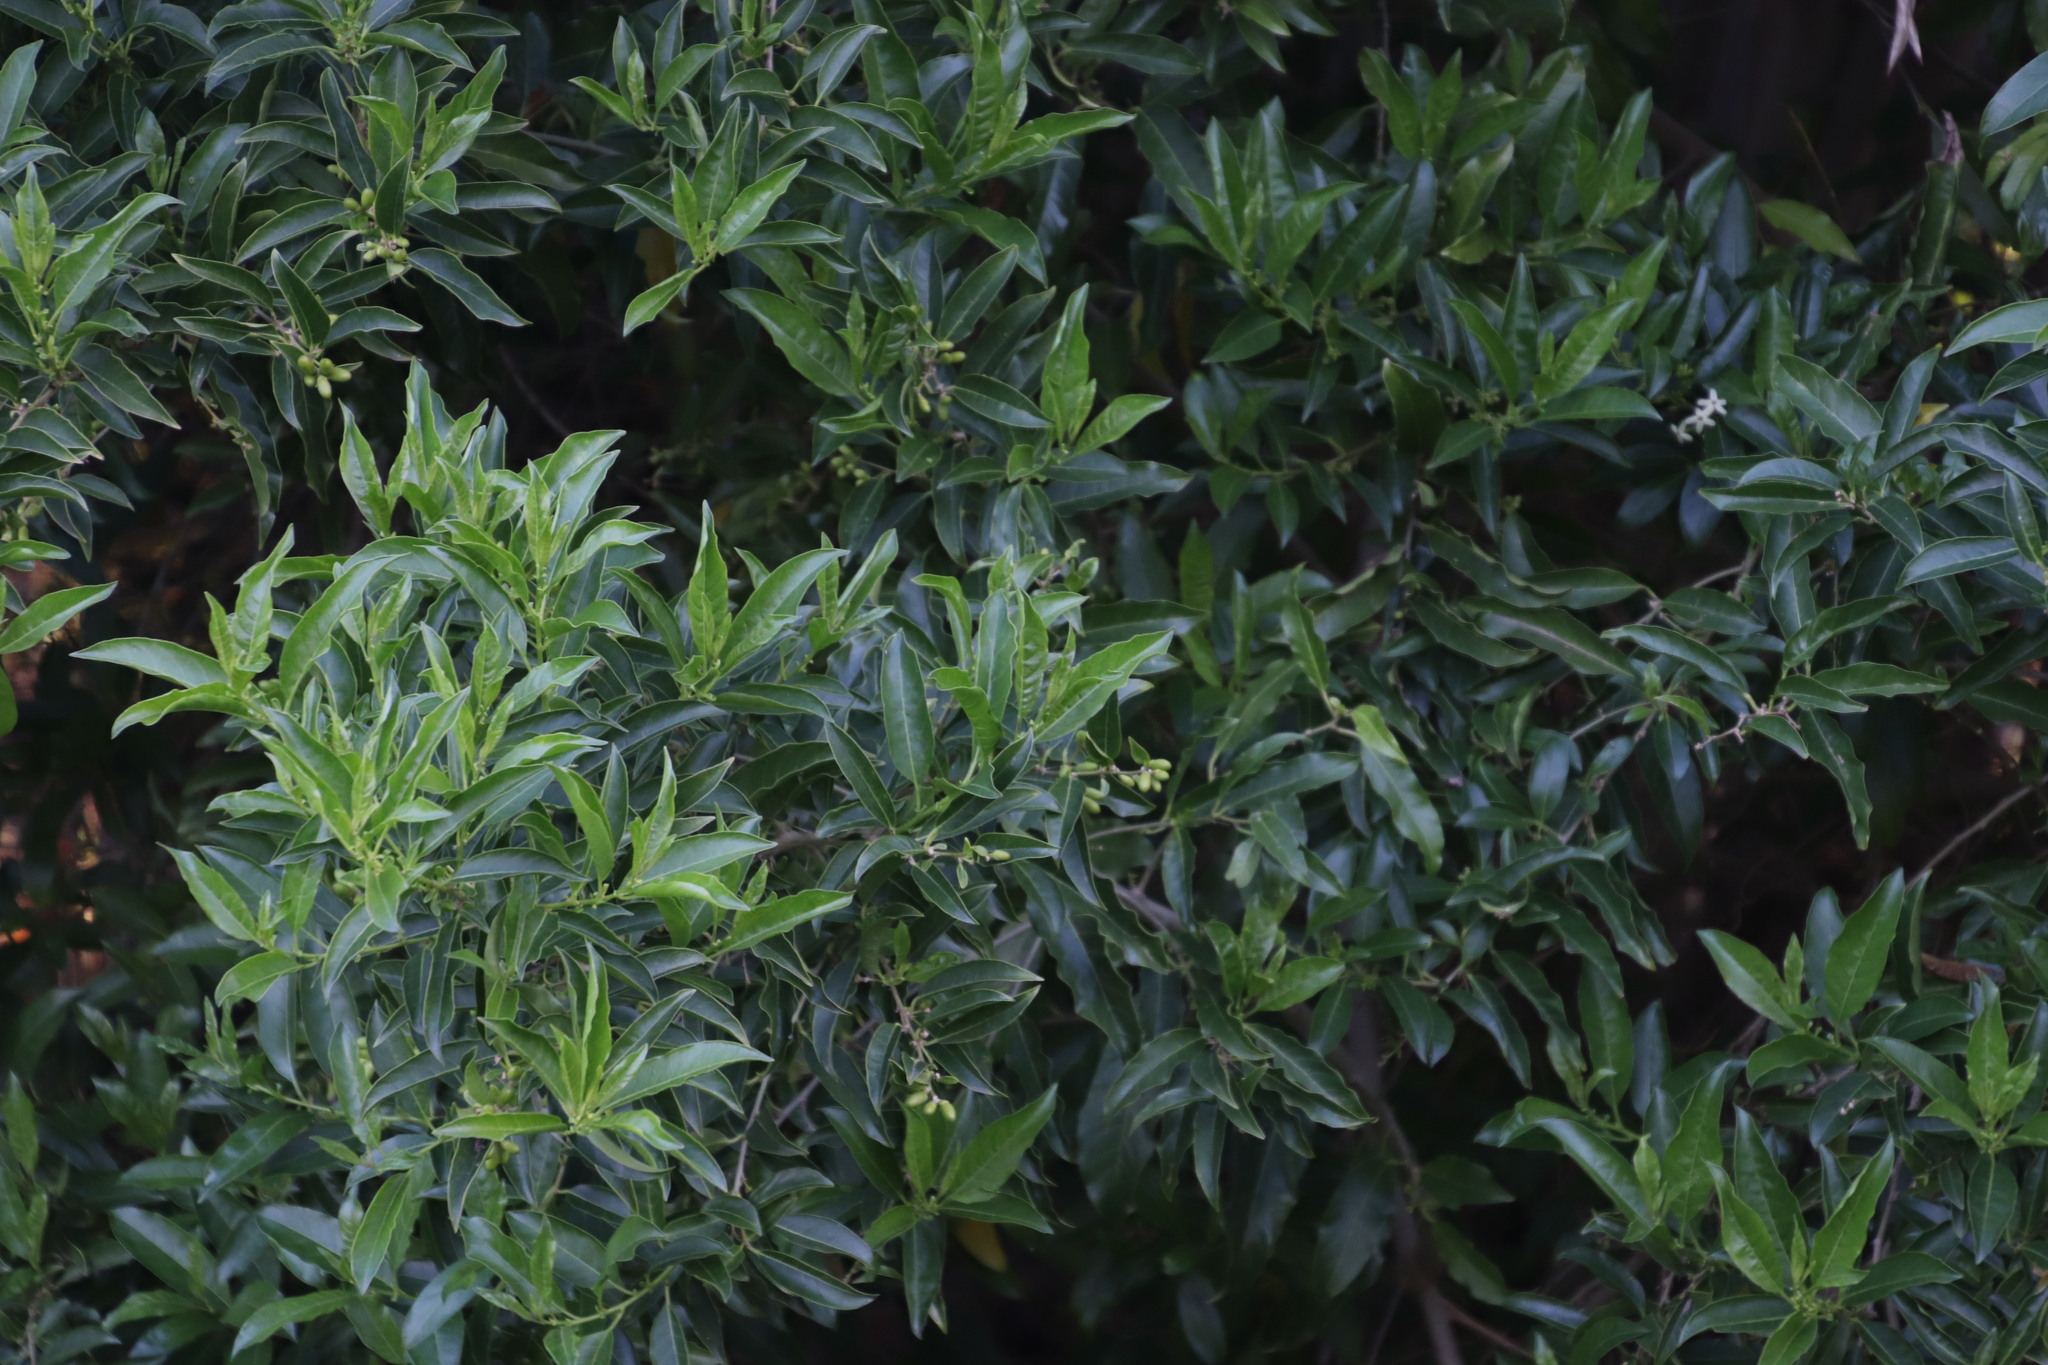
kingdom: Plantae
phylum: Tracheophyta
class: Magnoliopsida
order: Solanales
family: Solanaceae
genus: Cestrum
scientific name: Cestrum laevigatum
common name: Inkberry
